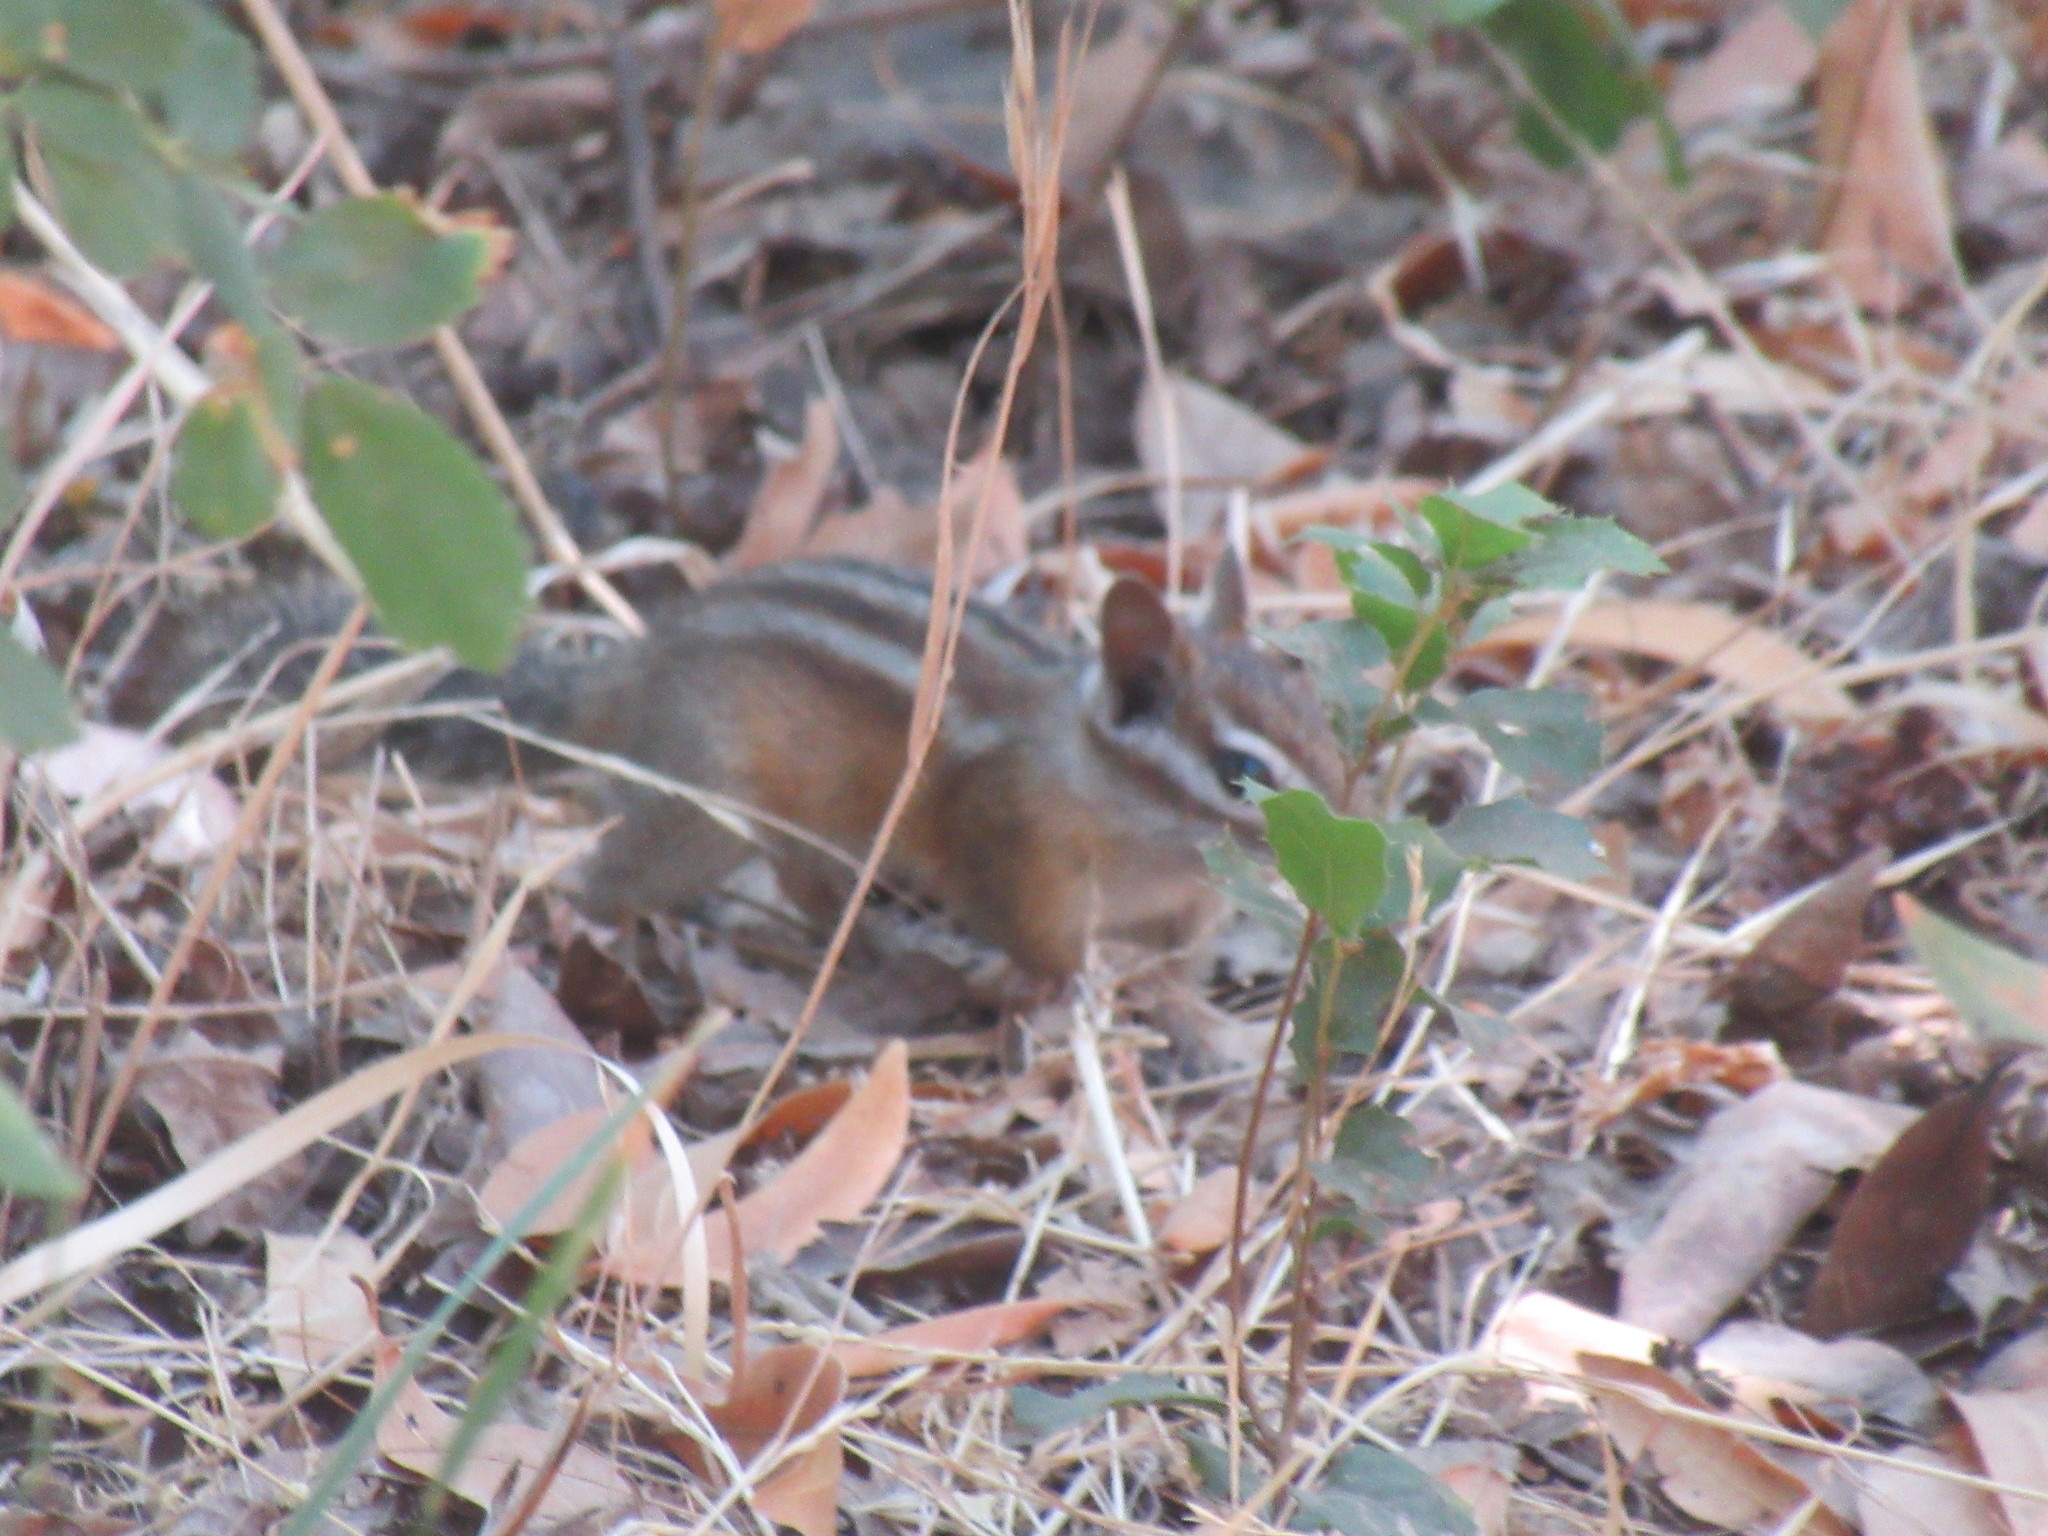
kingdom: Animalia
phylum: Chordata
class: Mammalia
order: Rodentia
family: Sciuridae
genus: Tamias
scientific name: Tamias merriami
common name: Merriam's chipmunk
